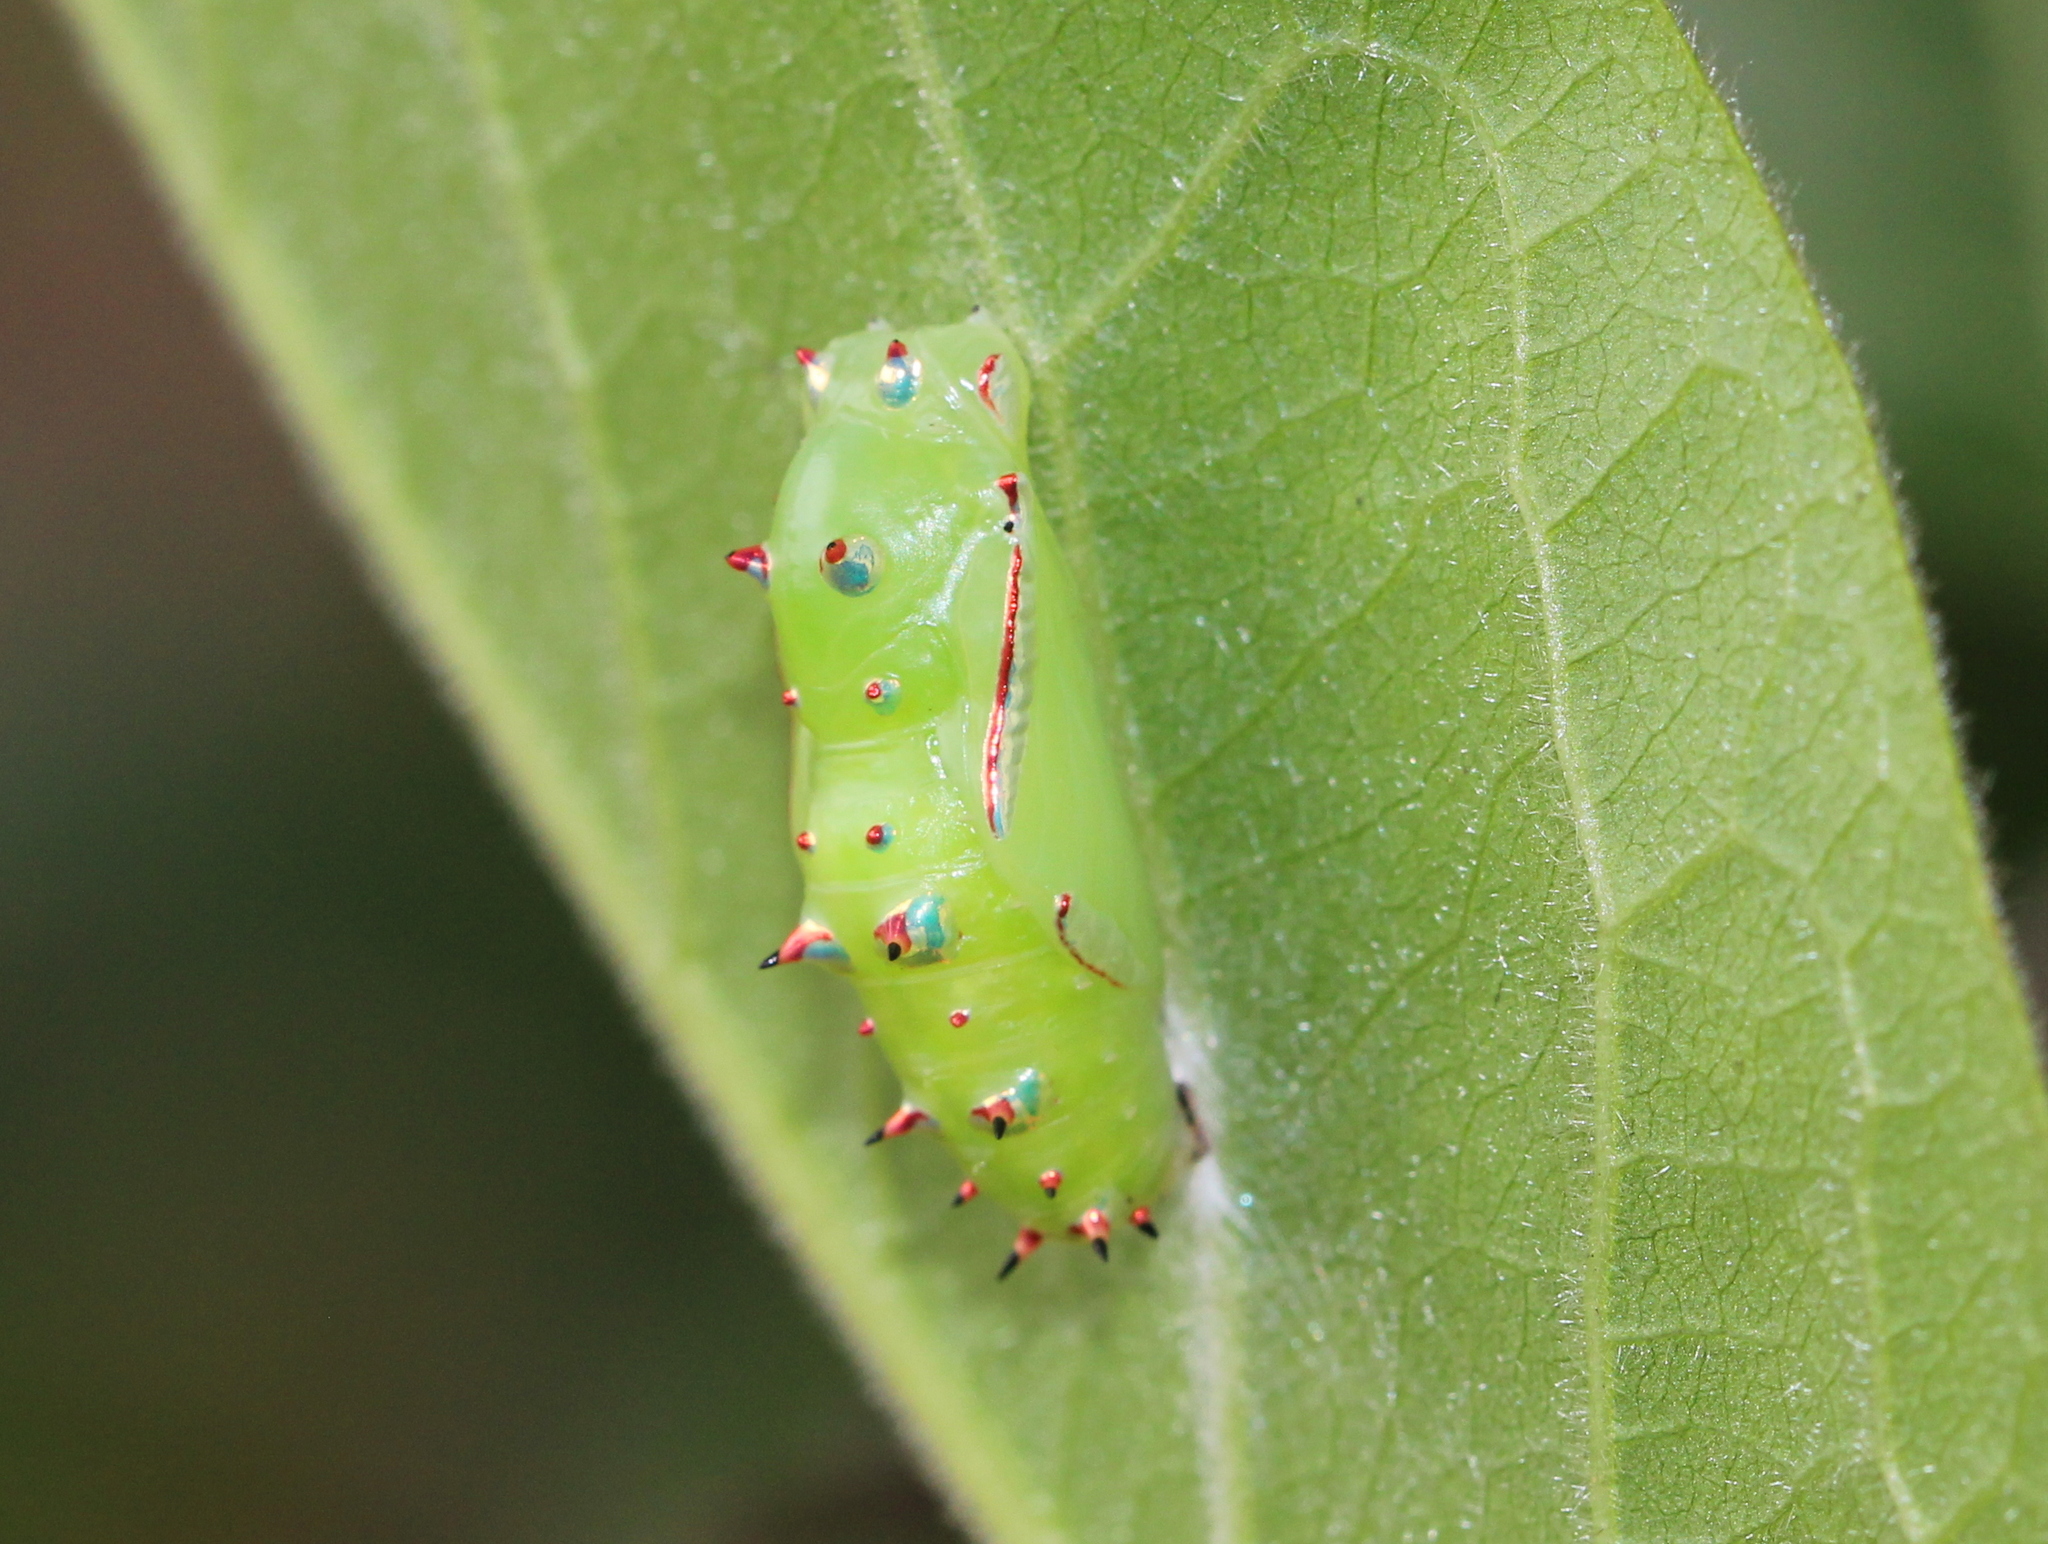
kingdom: Animalia
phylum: Arthropoda
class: Insecta
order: Lepidoptera
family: Nymphalidae
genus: Phalanta
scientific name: Phalanta phalantha
